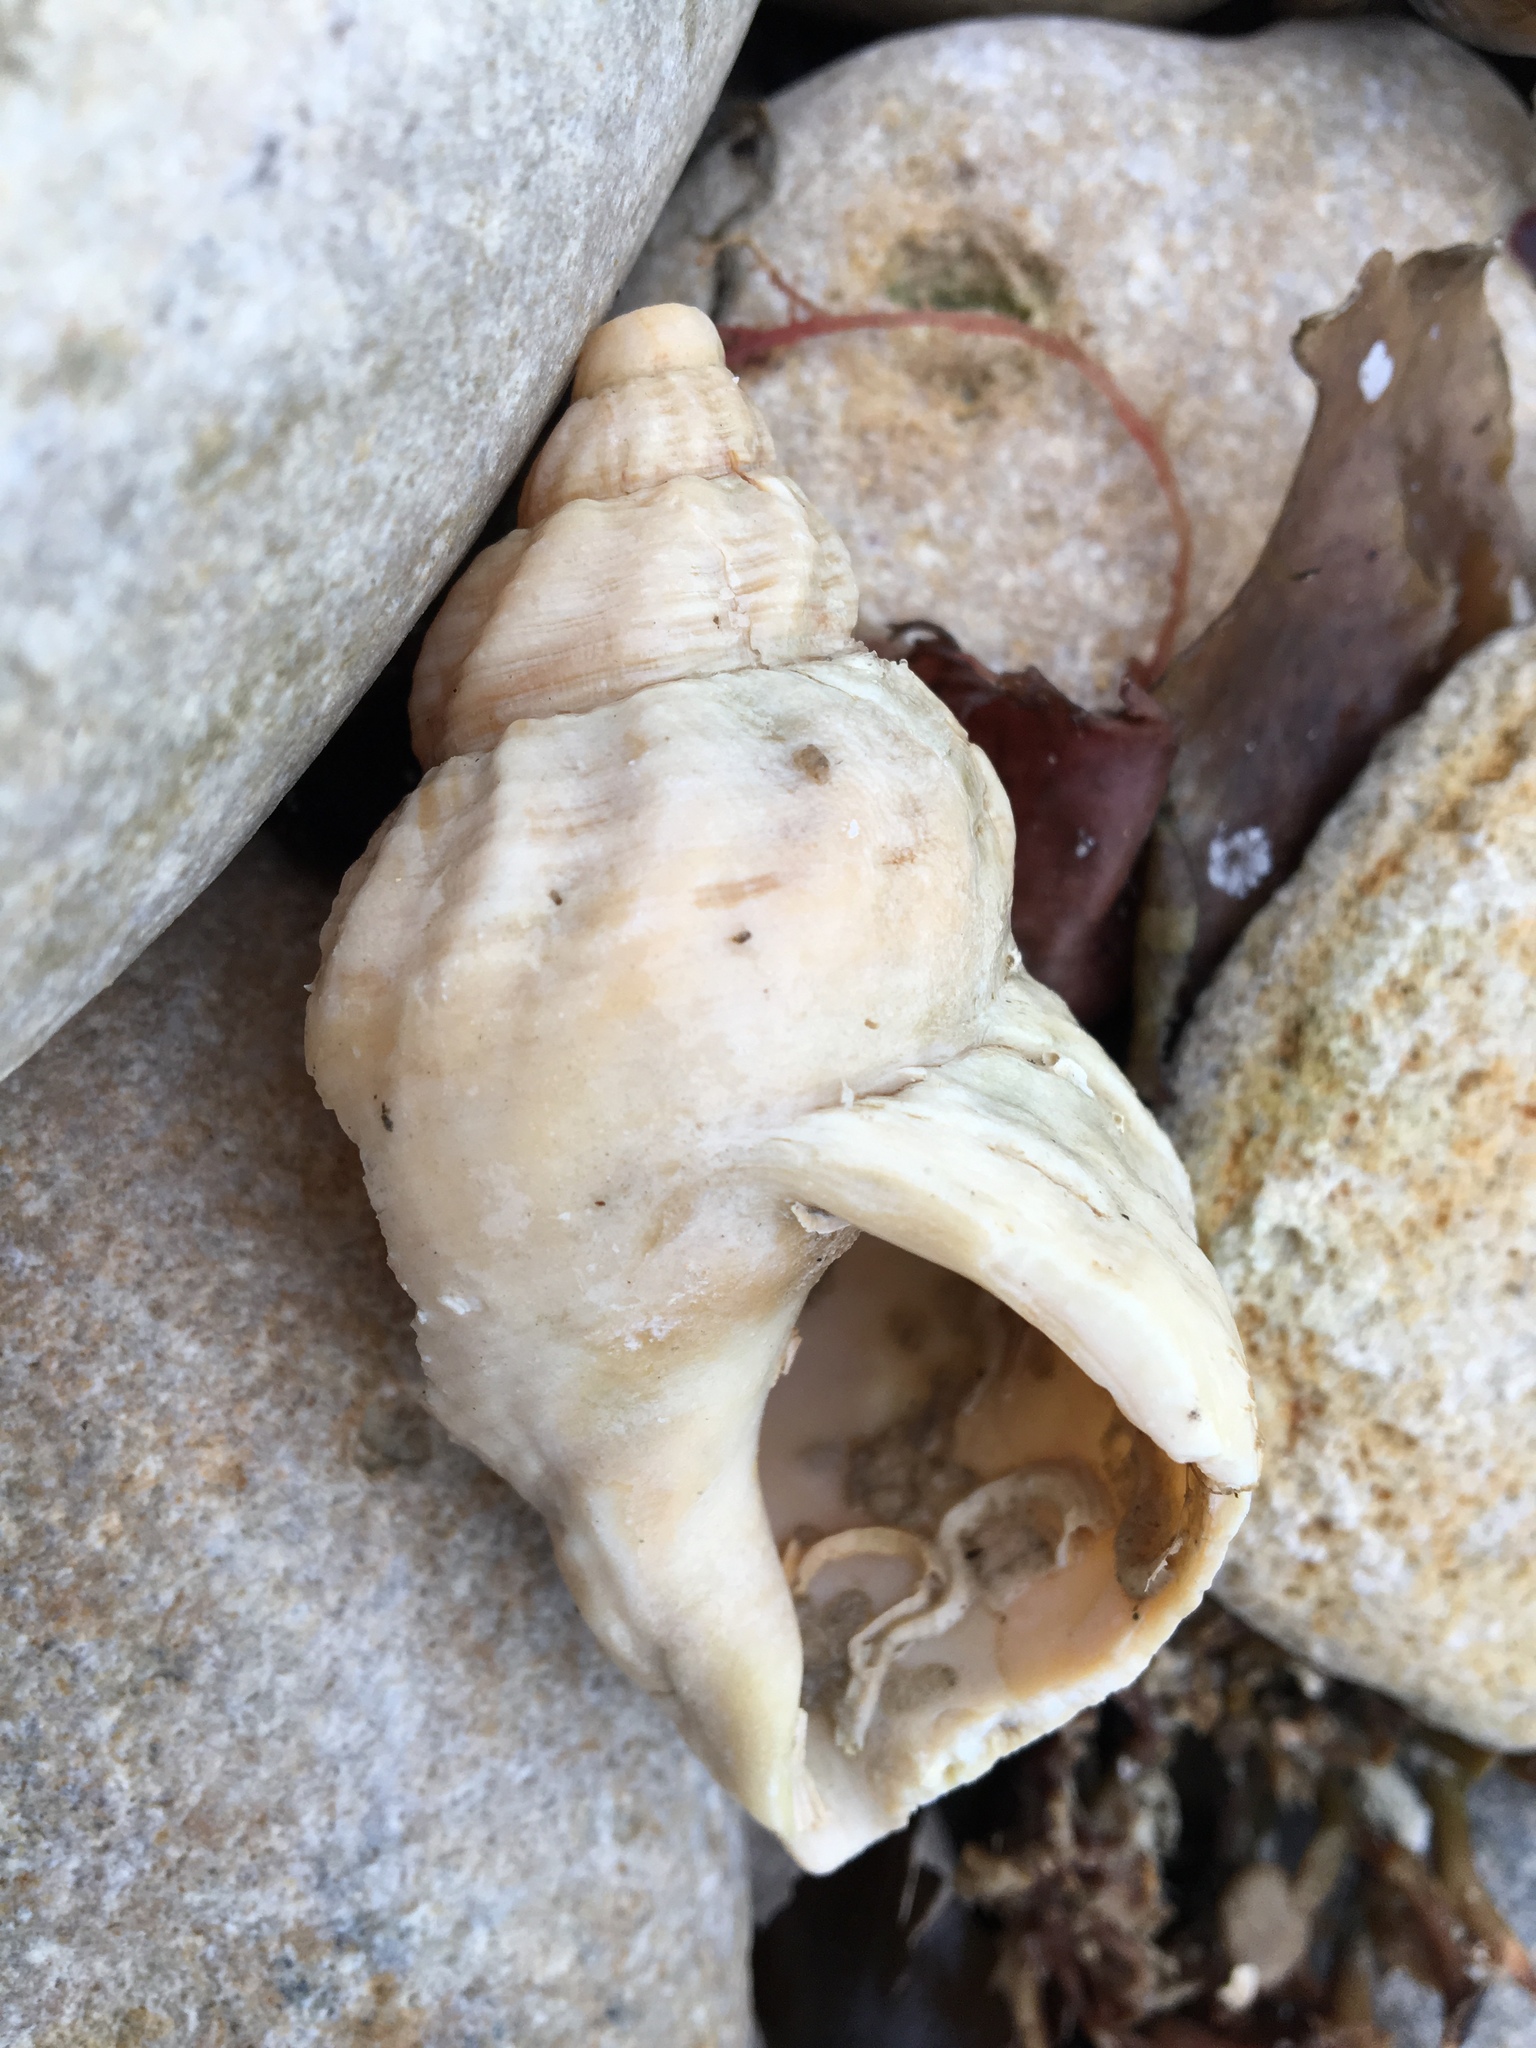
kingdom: Animalia
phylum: Mollusca
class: Gastropoda
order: Neogastropoda
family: Buccinidae
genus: Buccinum
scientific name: Buccinum undatum
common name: Common whelk
